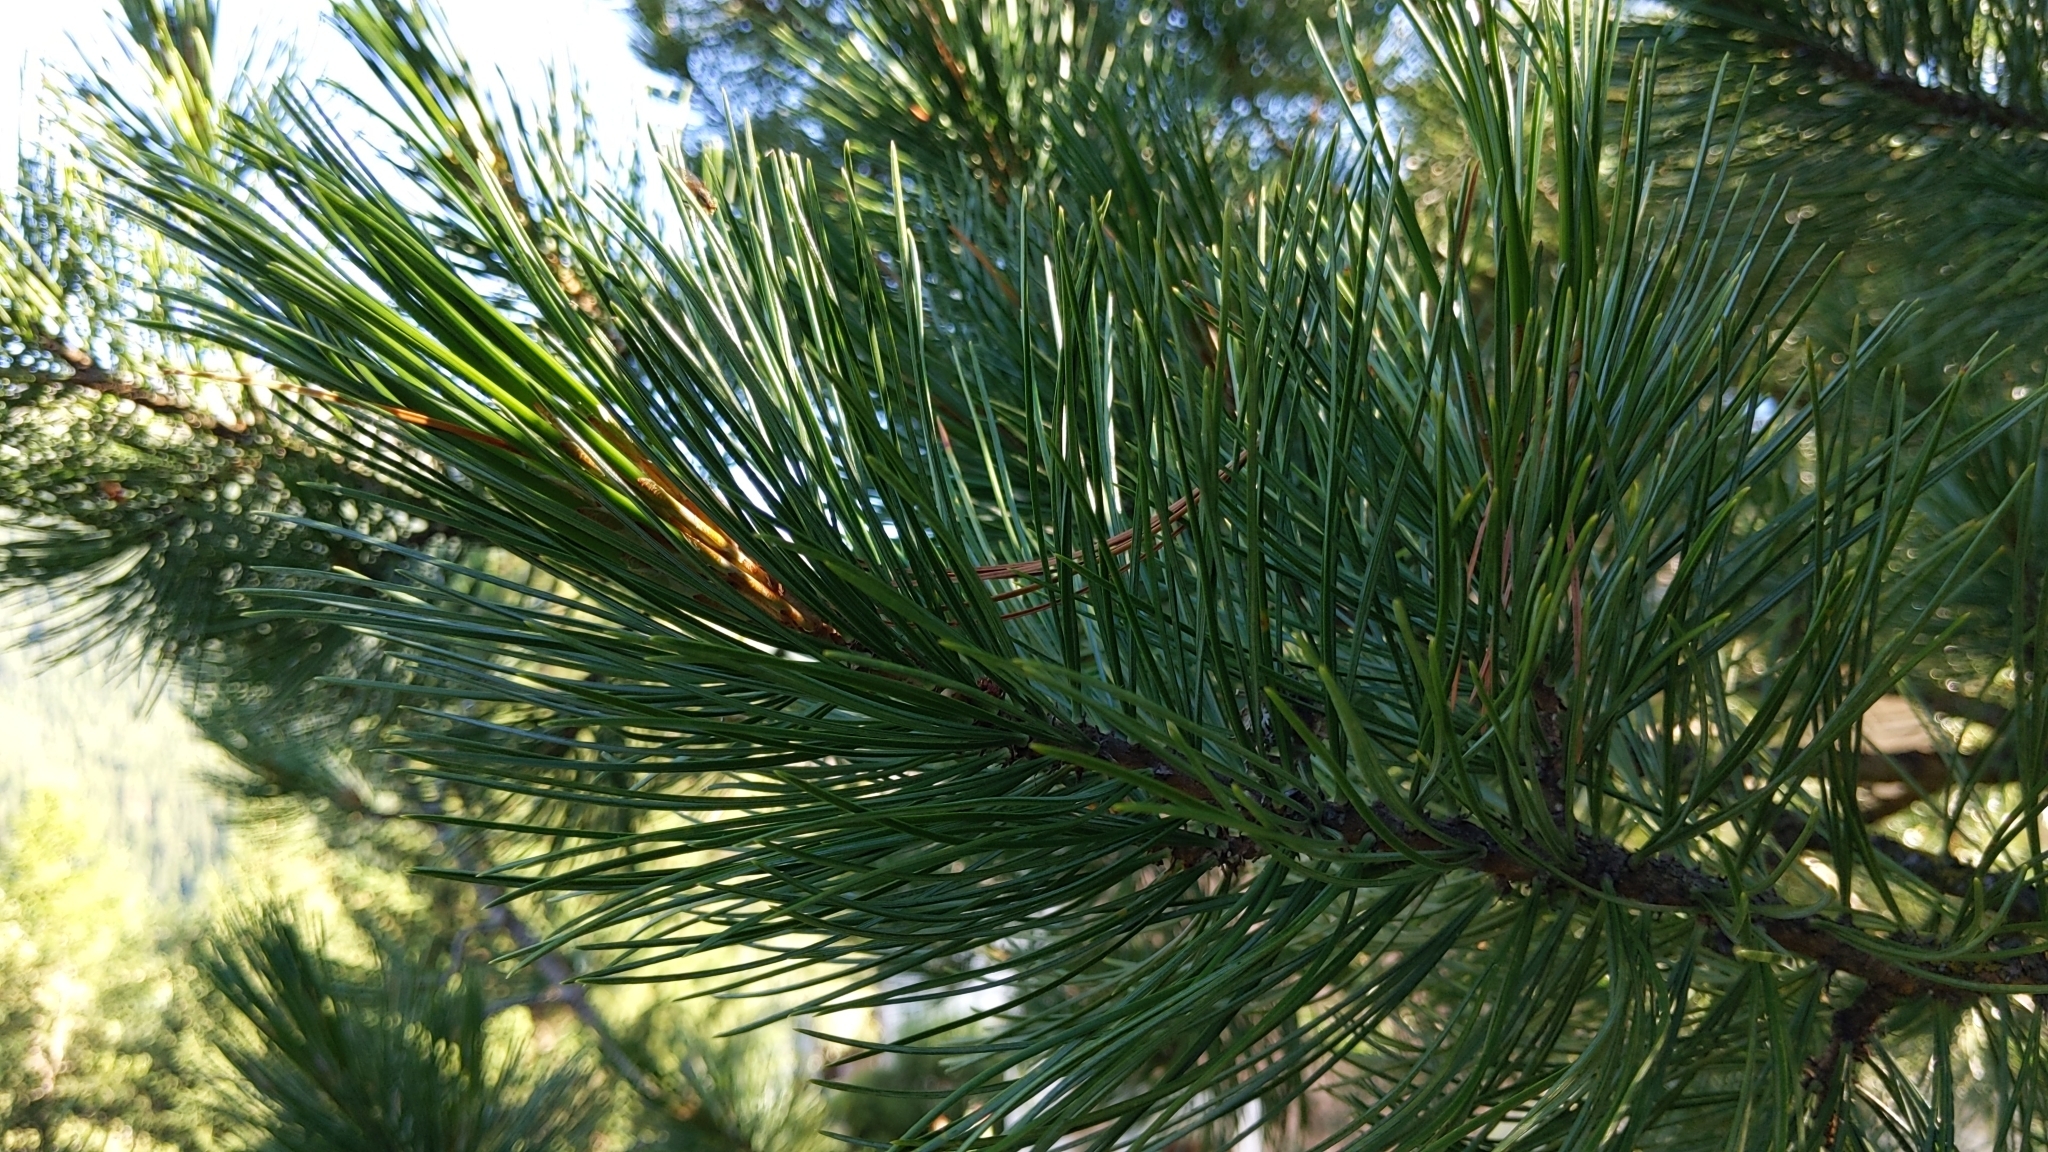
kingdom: Plantae
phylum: Tracheophyta
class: Pinopsida
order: Pinales
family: Pinaceae
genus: Pinus
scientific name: Pinus cembra
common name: Arolla pine
